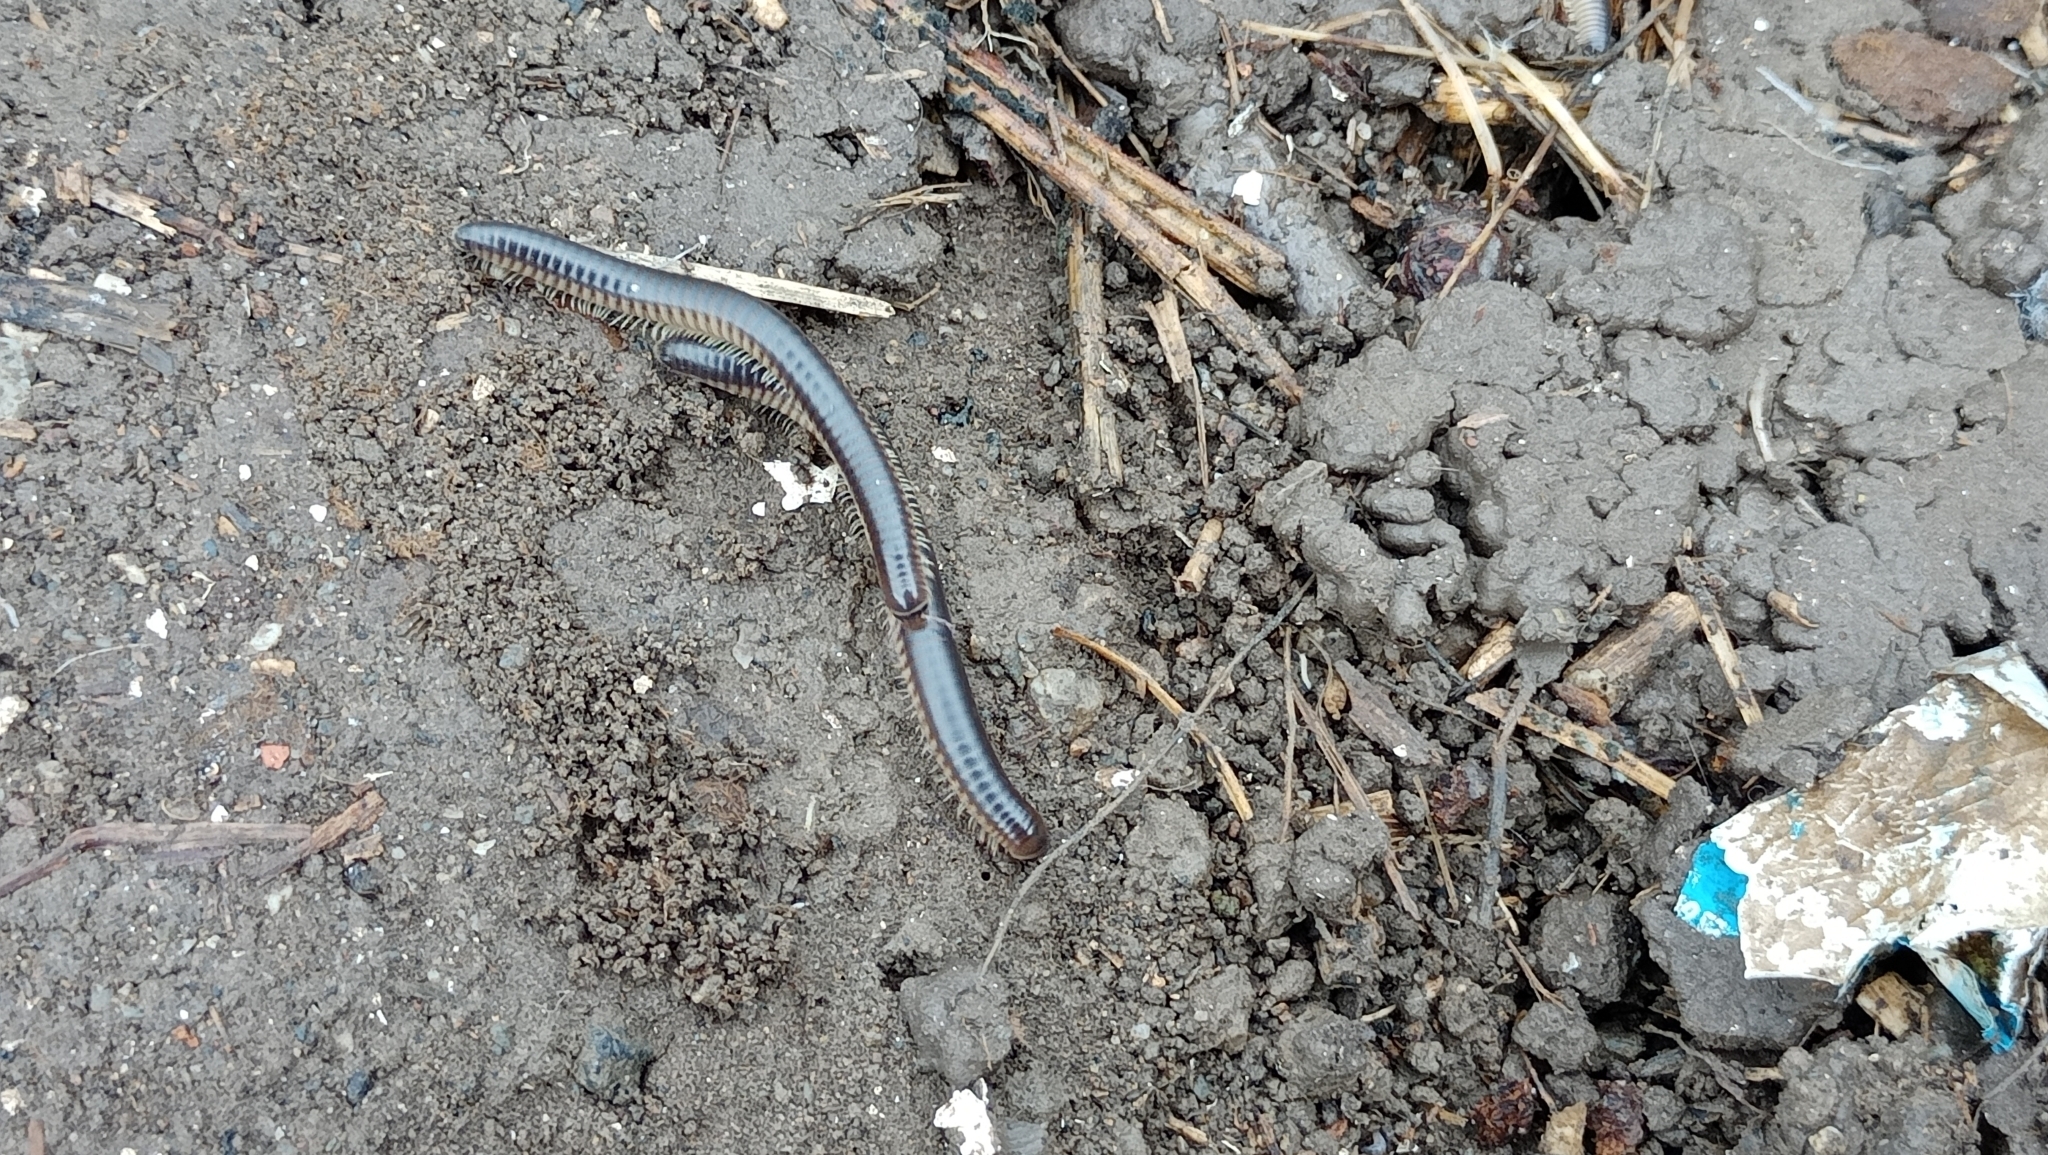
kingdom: Animalia
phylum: Arthropoda
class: Diplopoda
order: Julida
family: Julidae
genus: Pachyiulus
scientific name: Pachyiulus flavipes
